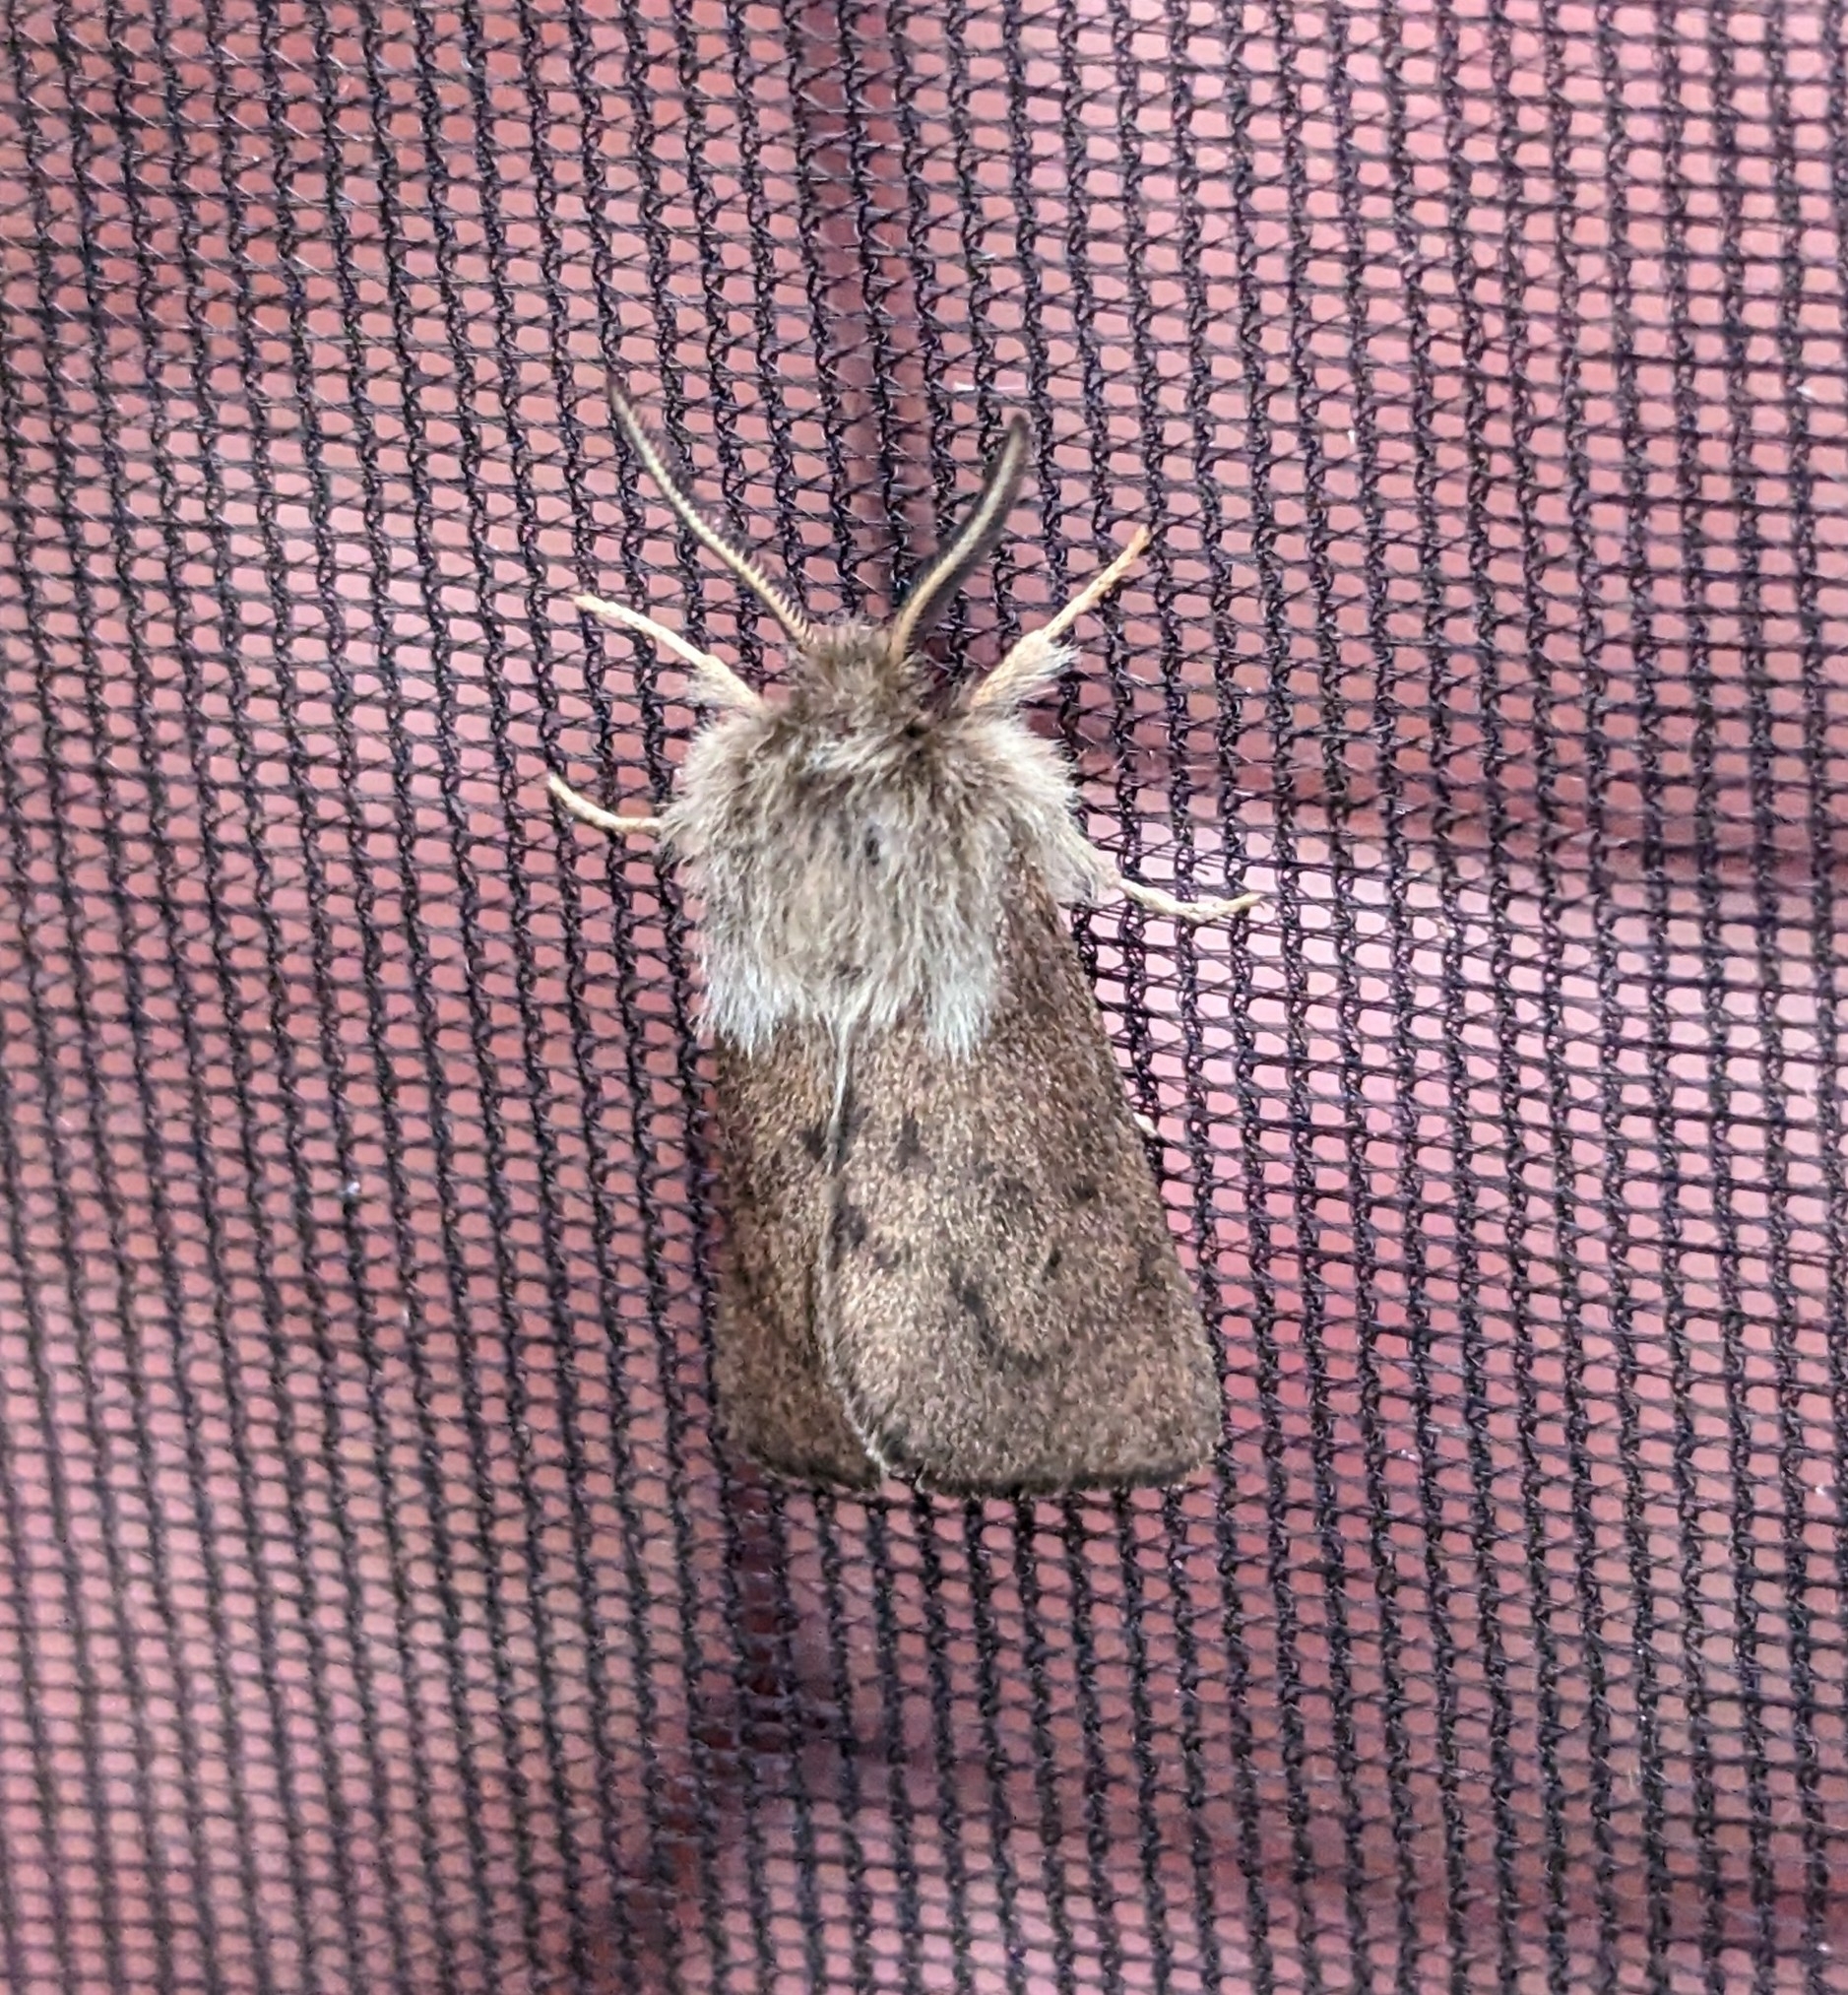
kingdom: Animalia
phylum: Arthropoda
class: Insecta
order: Lepidoptera
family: Erebidae
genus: Spilosoma
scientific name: Spilosoma vagans
